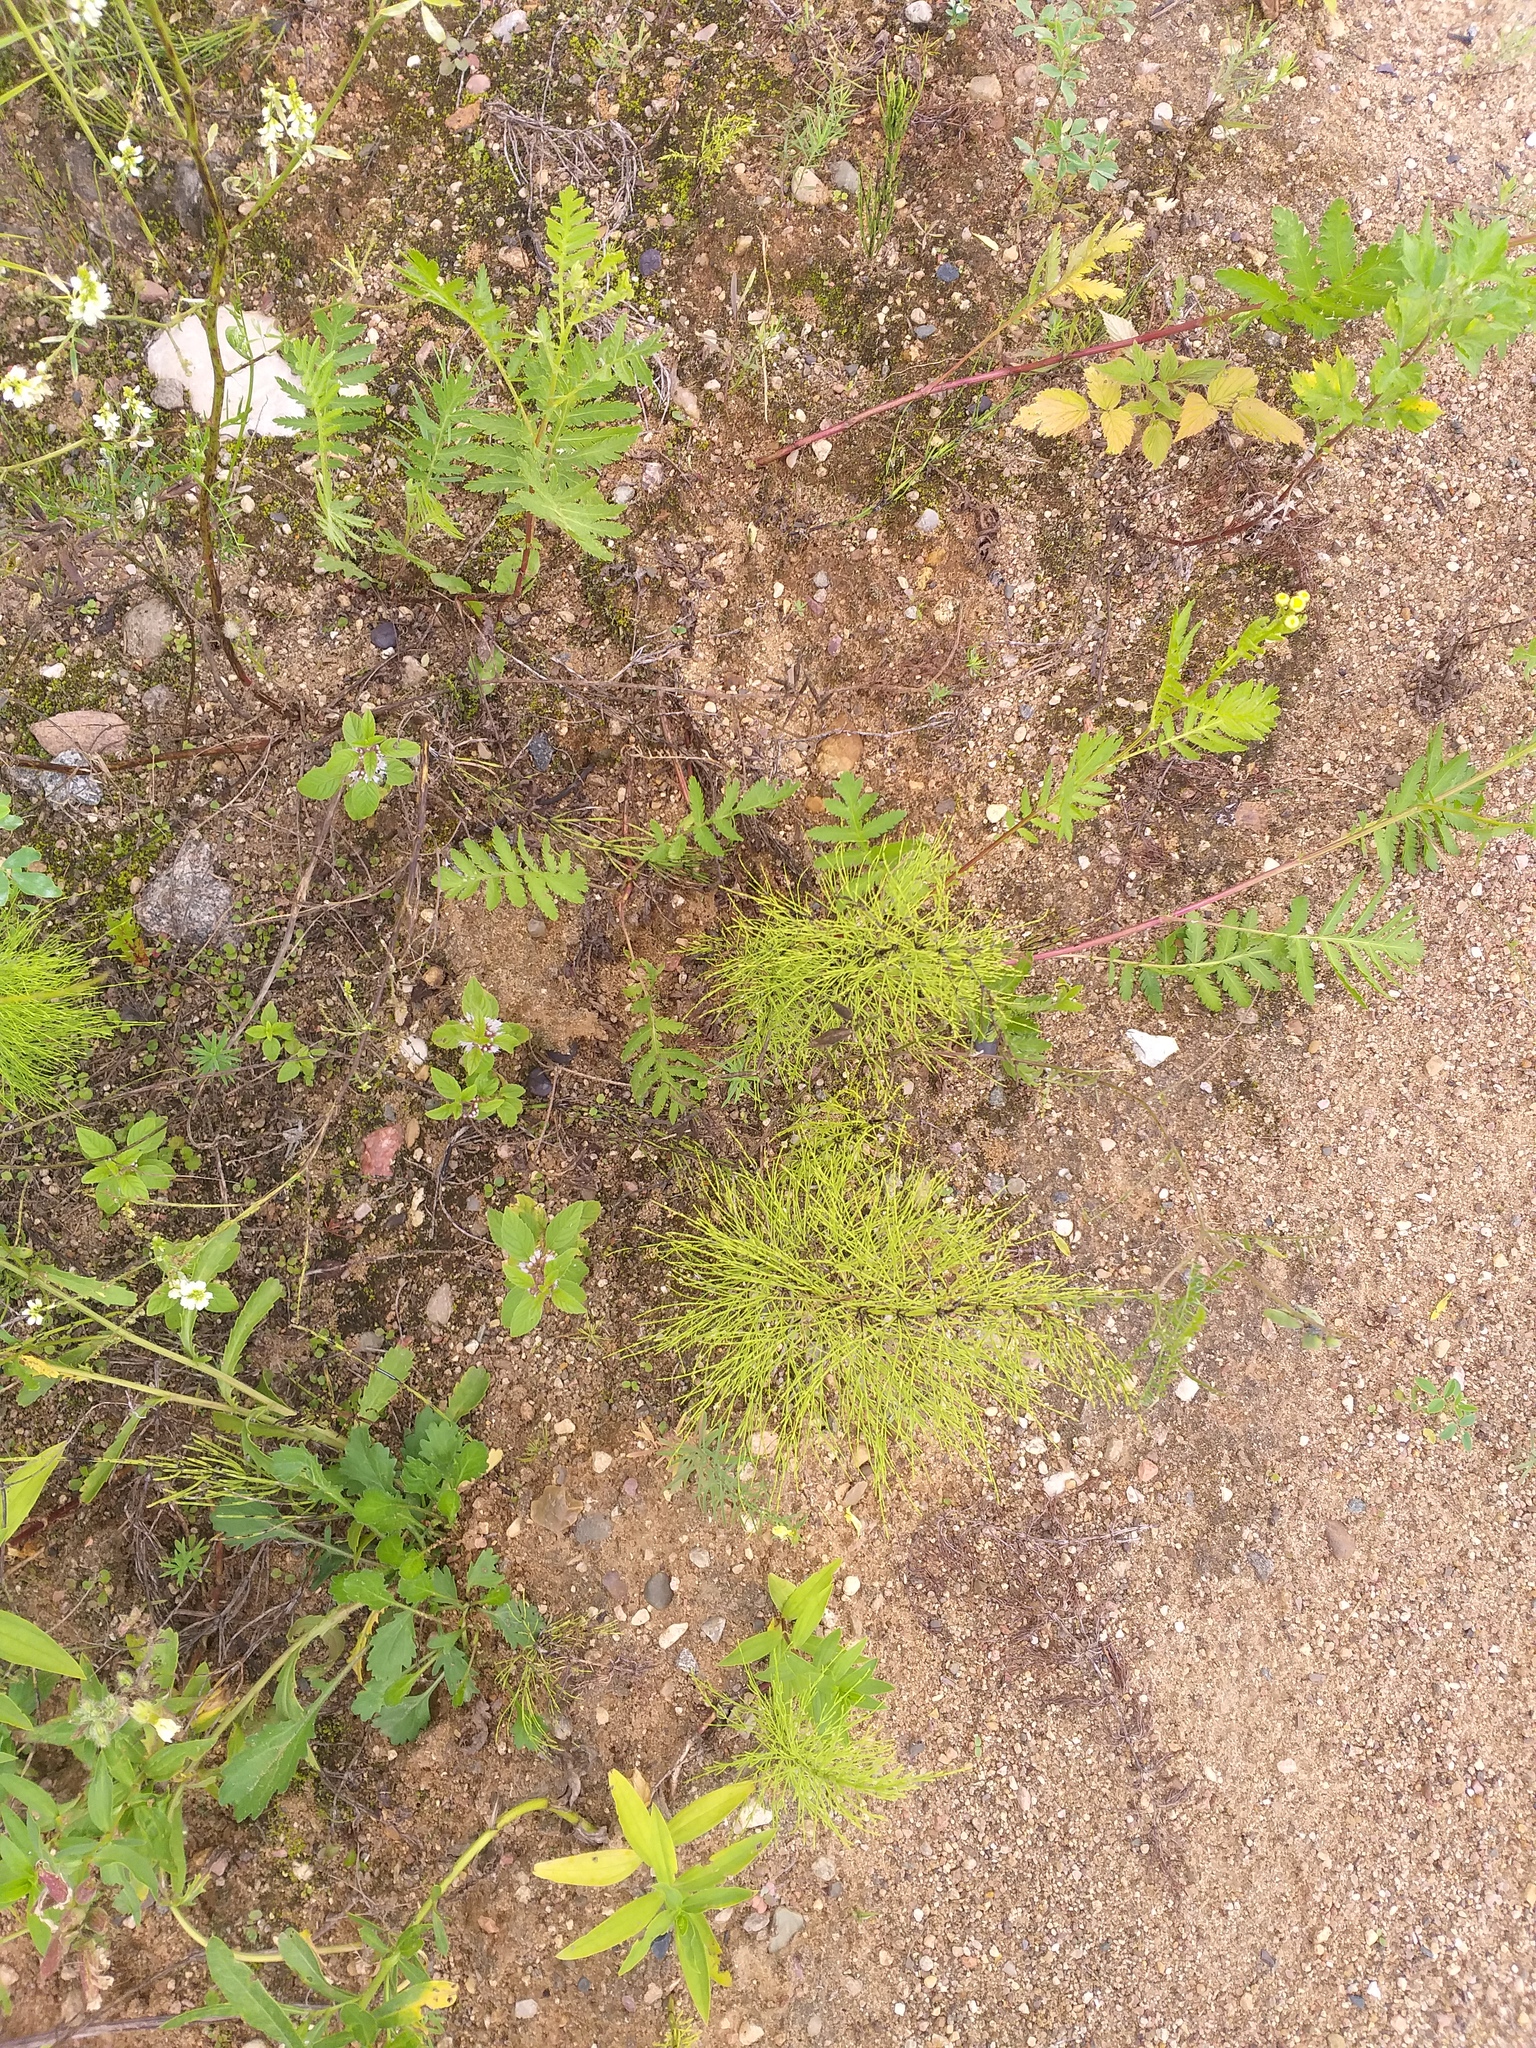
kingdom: Plantae
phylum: Tracheophyta
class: Polypodiopsida
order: Equisetales
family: Equisetaceae
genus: Equisetum
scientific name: Equisetum sylvaticum
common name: Wood horsetail
